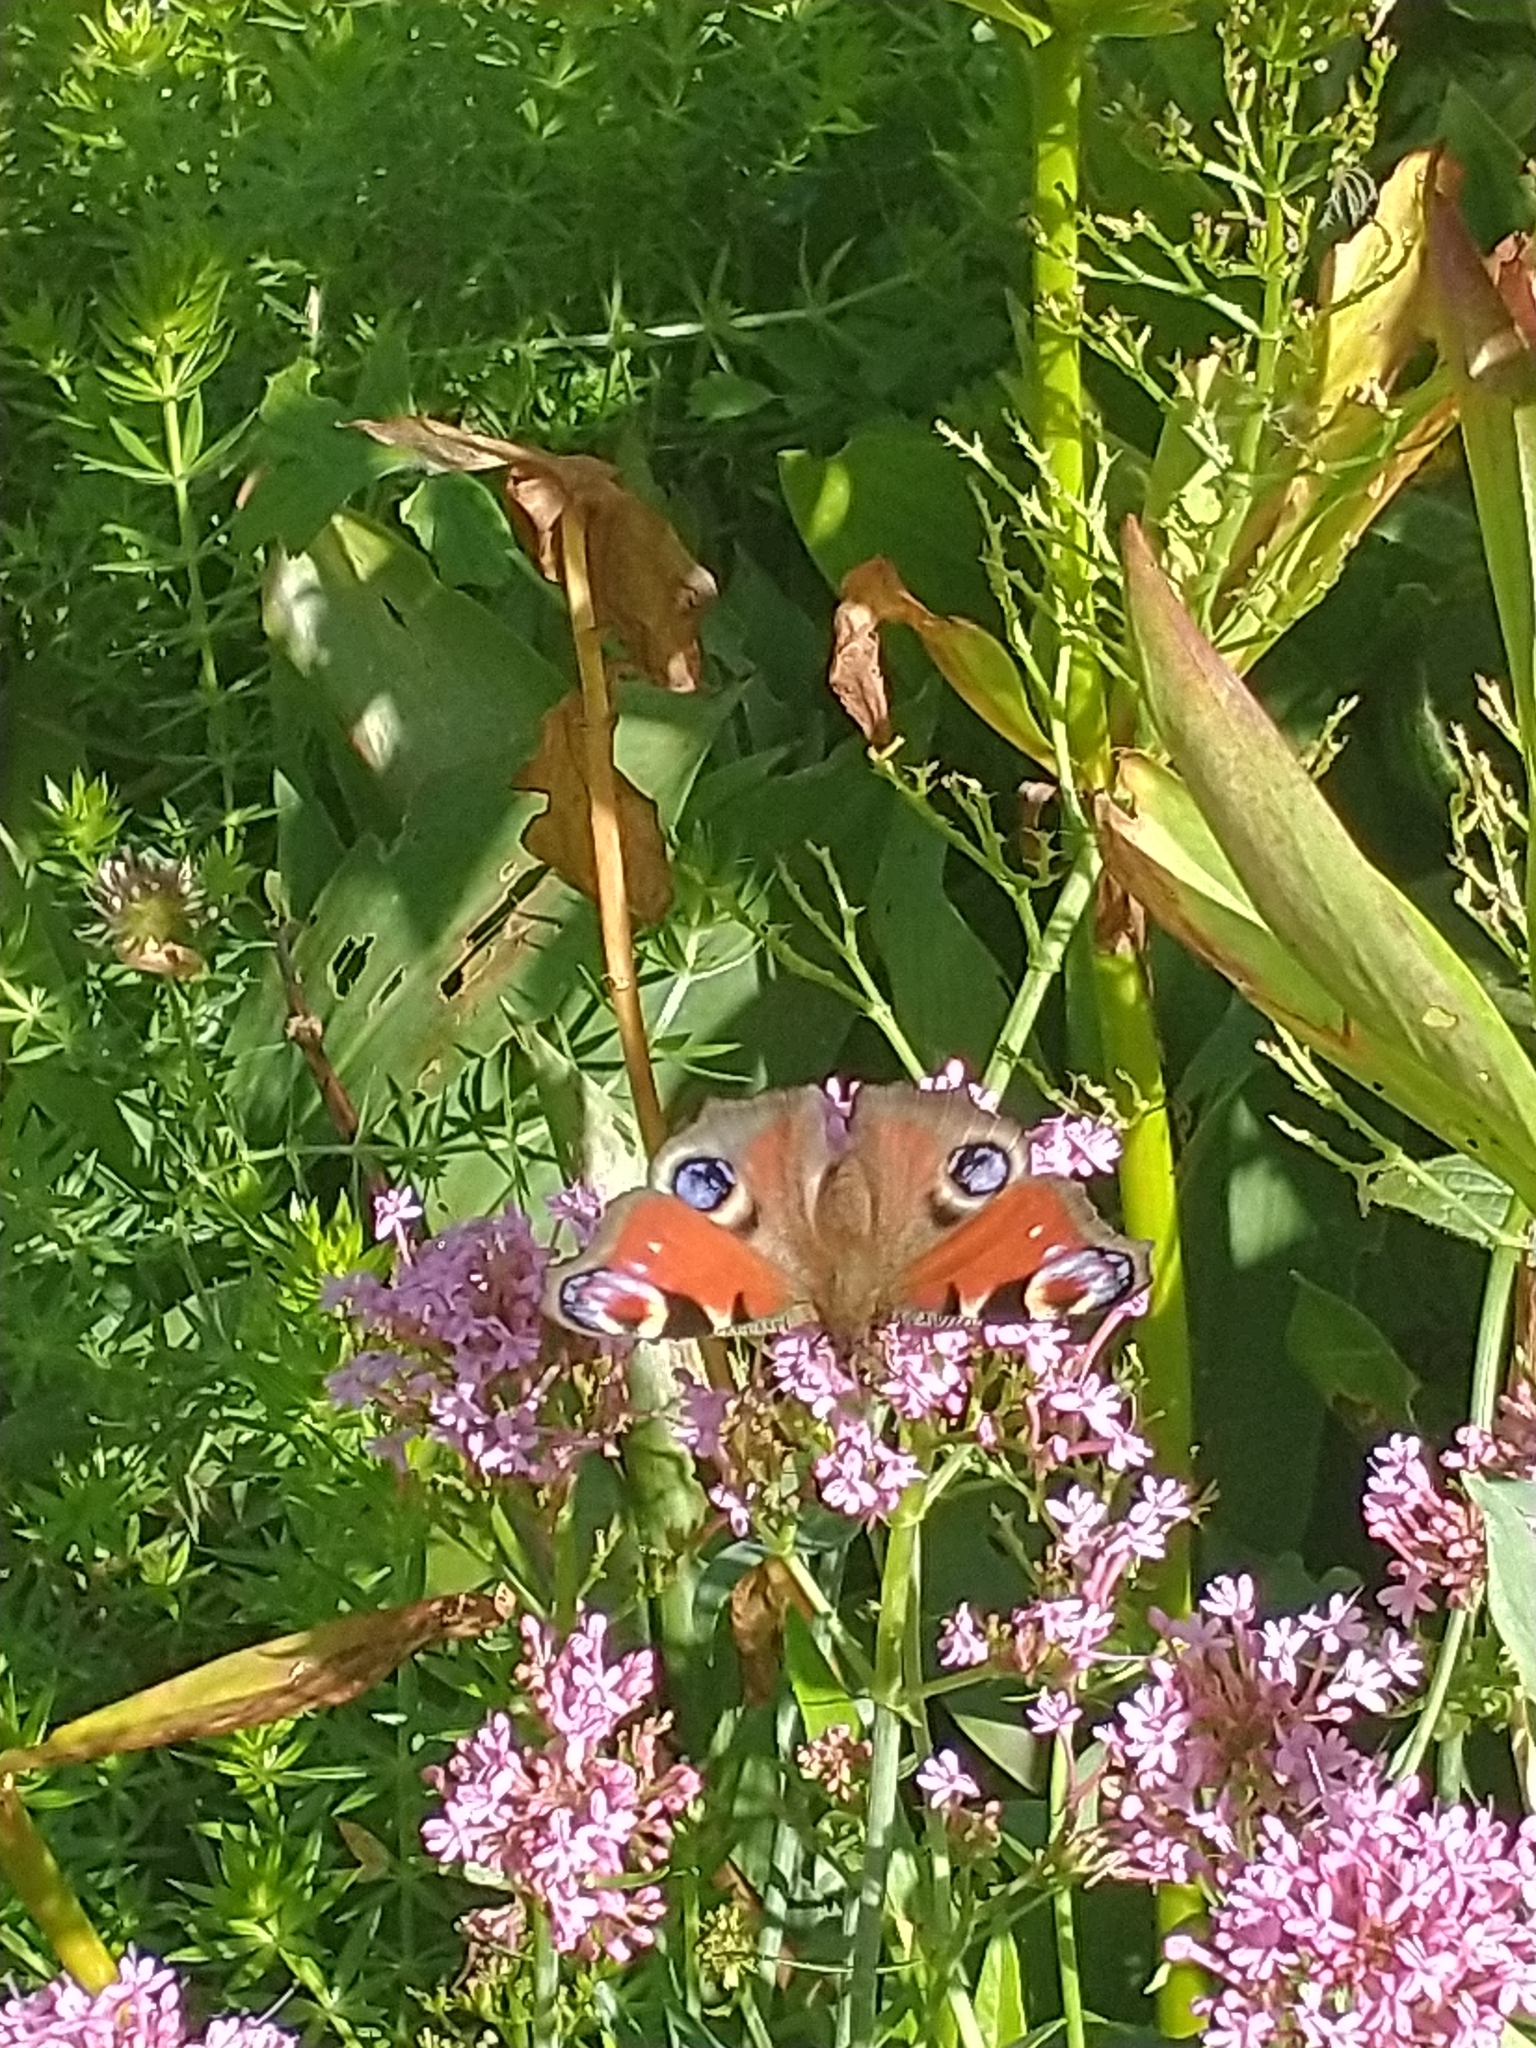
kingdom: Animalia
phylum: Arthropoda
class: Insecta
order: Lepidoptera
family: Nymphalidae
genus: Aglais
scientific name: Aglais io
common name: Peacock
